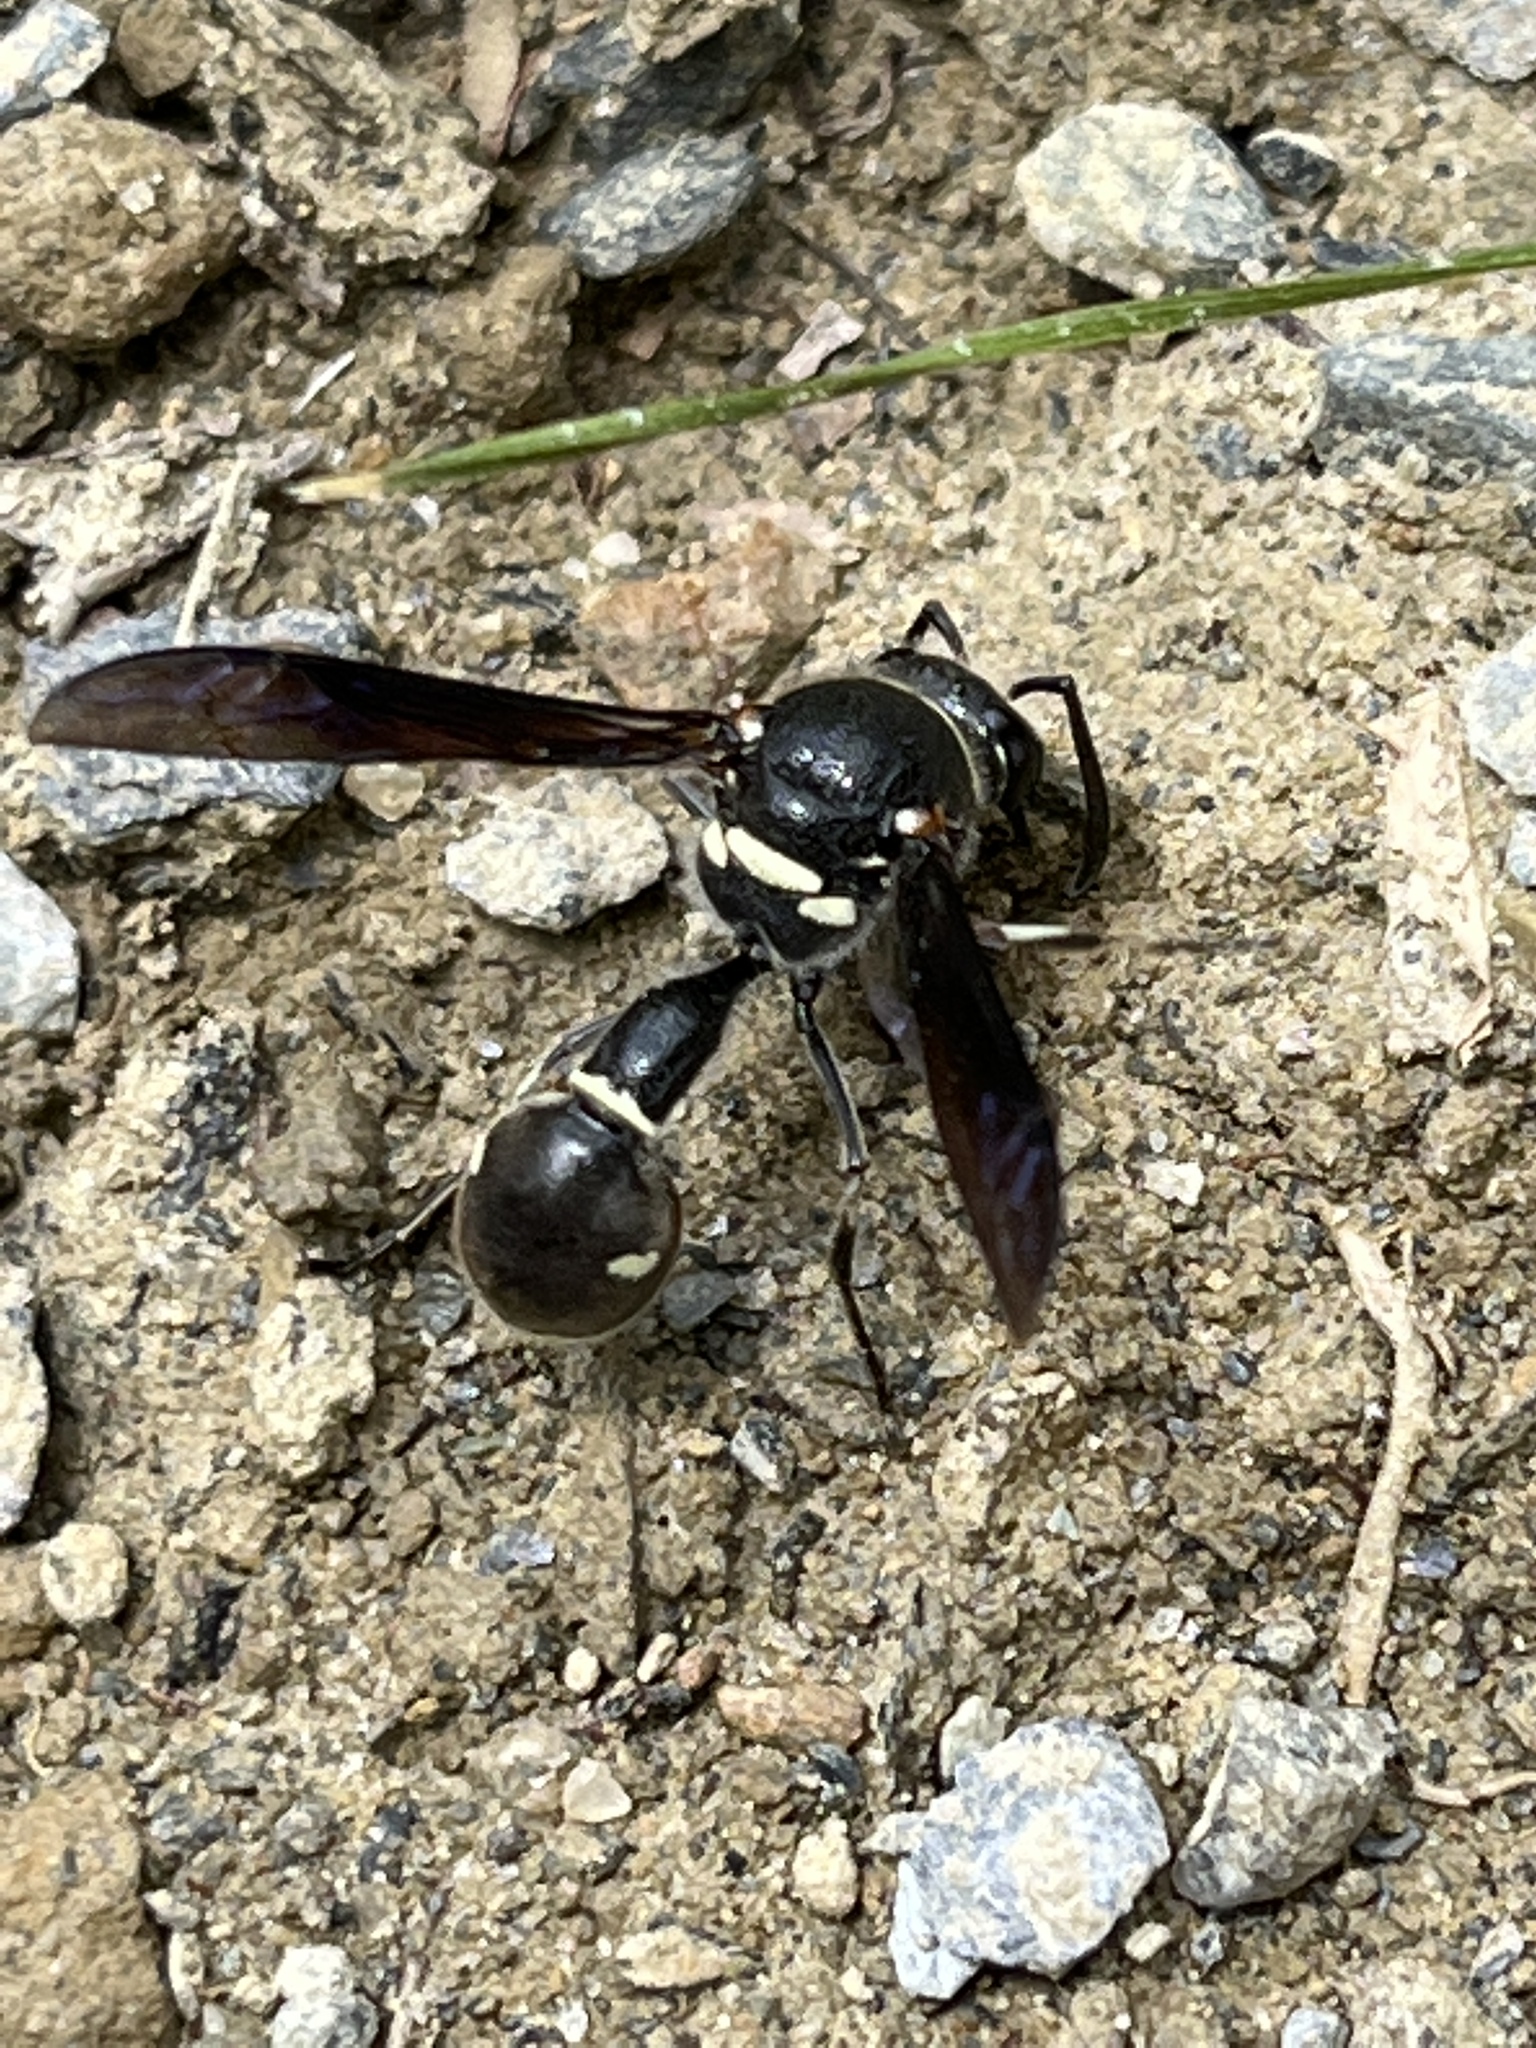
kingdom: Animalia
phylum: Arthropoda
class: Insecta
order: Hymenoptera
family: Vespidae
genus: Eumenes
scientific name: Eumenes fraternus
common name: Fraternal potter wasp
